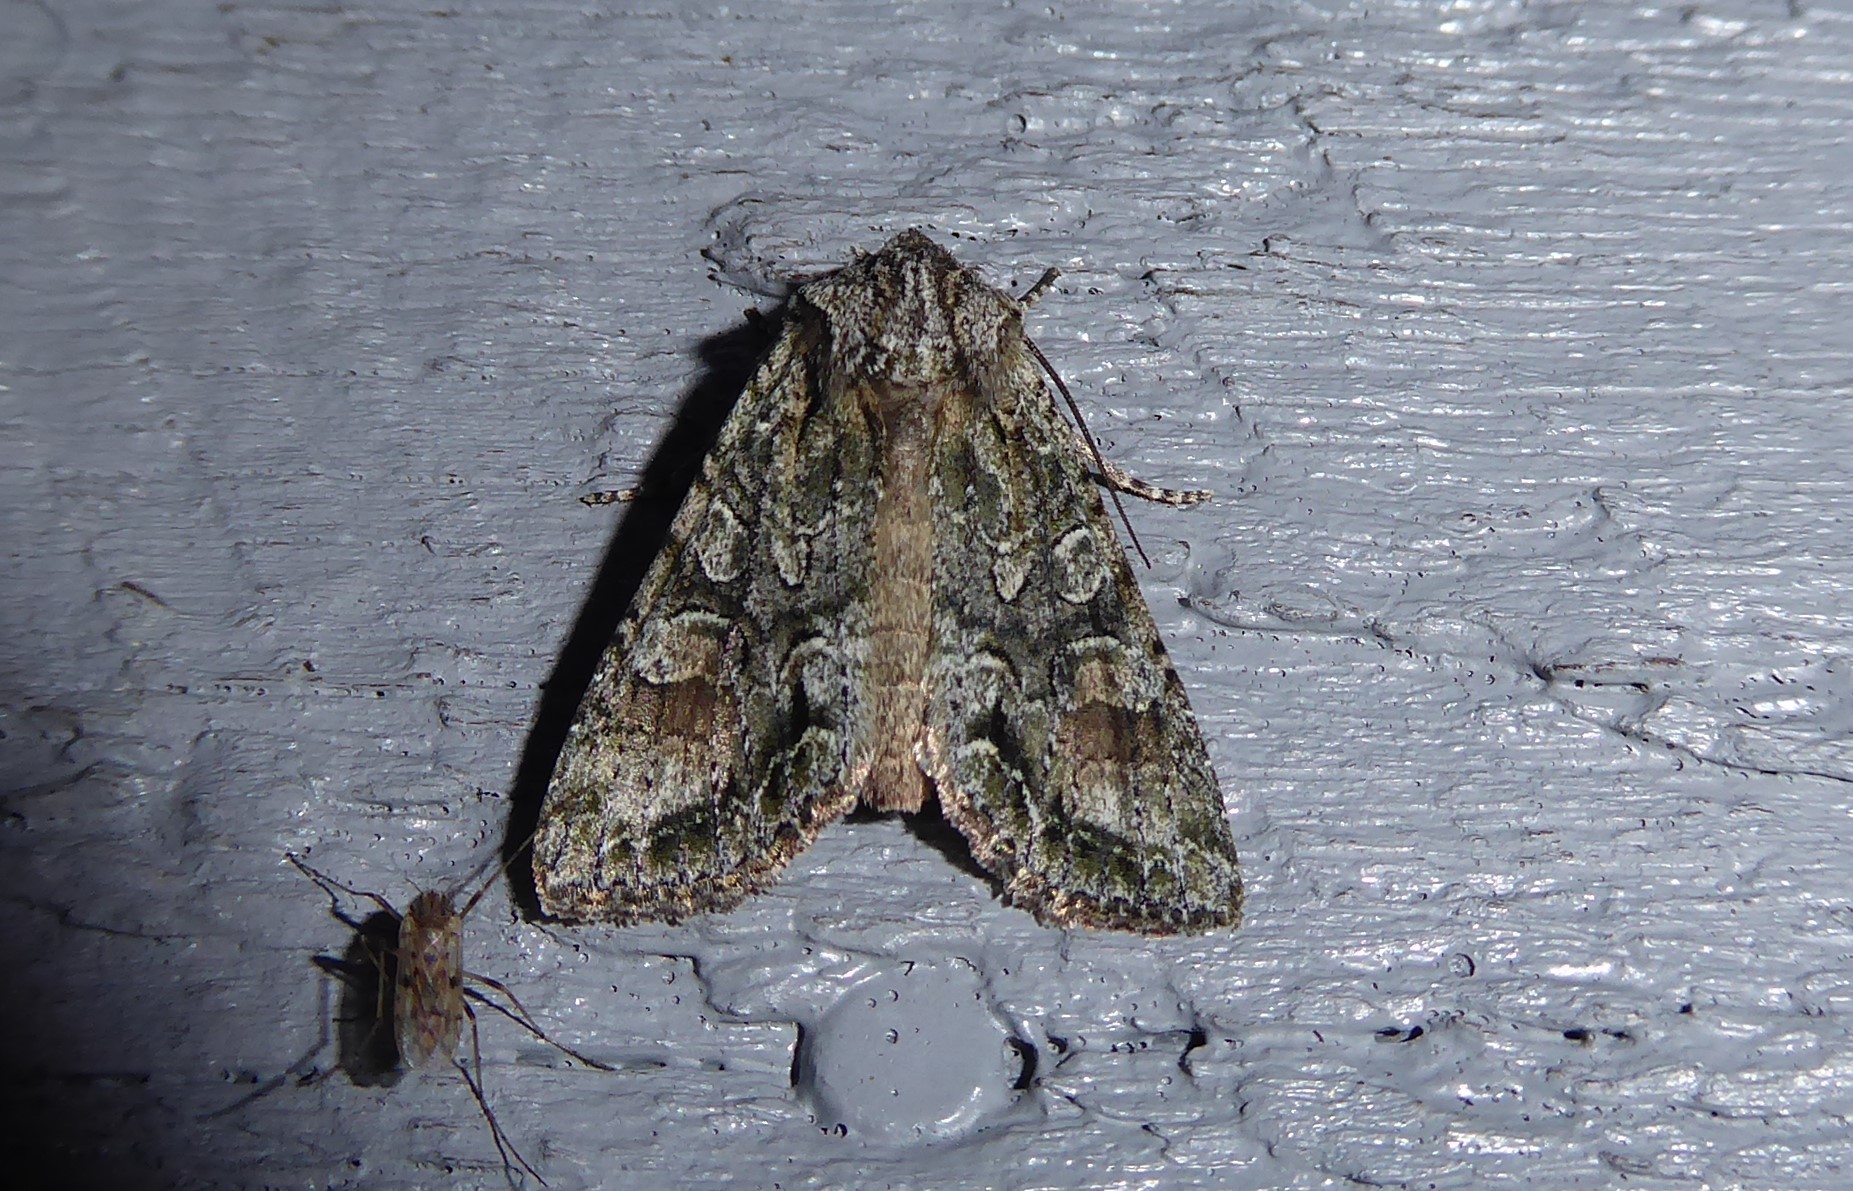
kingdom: Animalia
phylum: Arthropoda
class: Insecta
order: Lepidoptera
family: Noctuidae
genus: Ichneutica
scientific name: Ichneutica mutans
